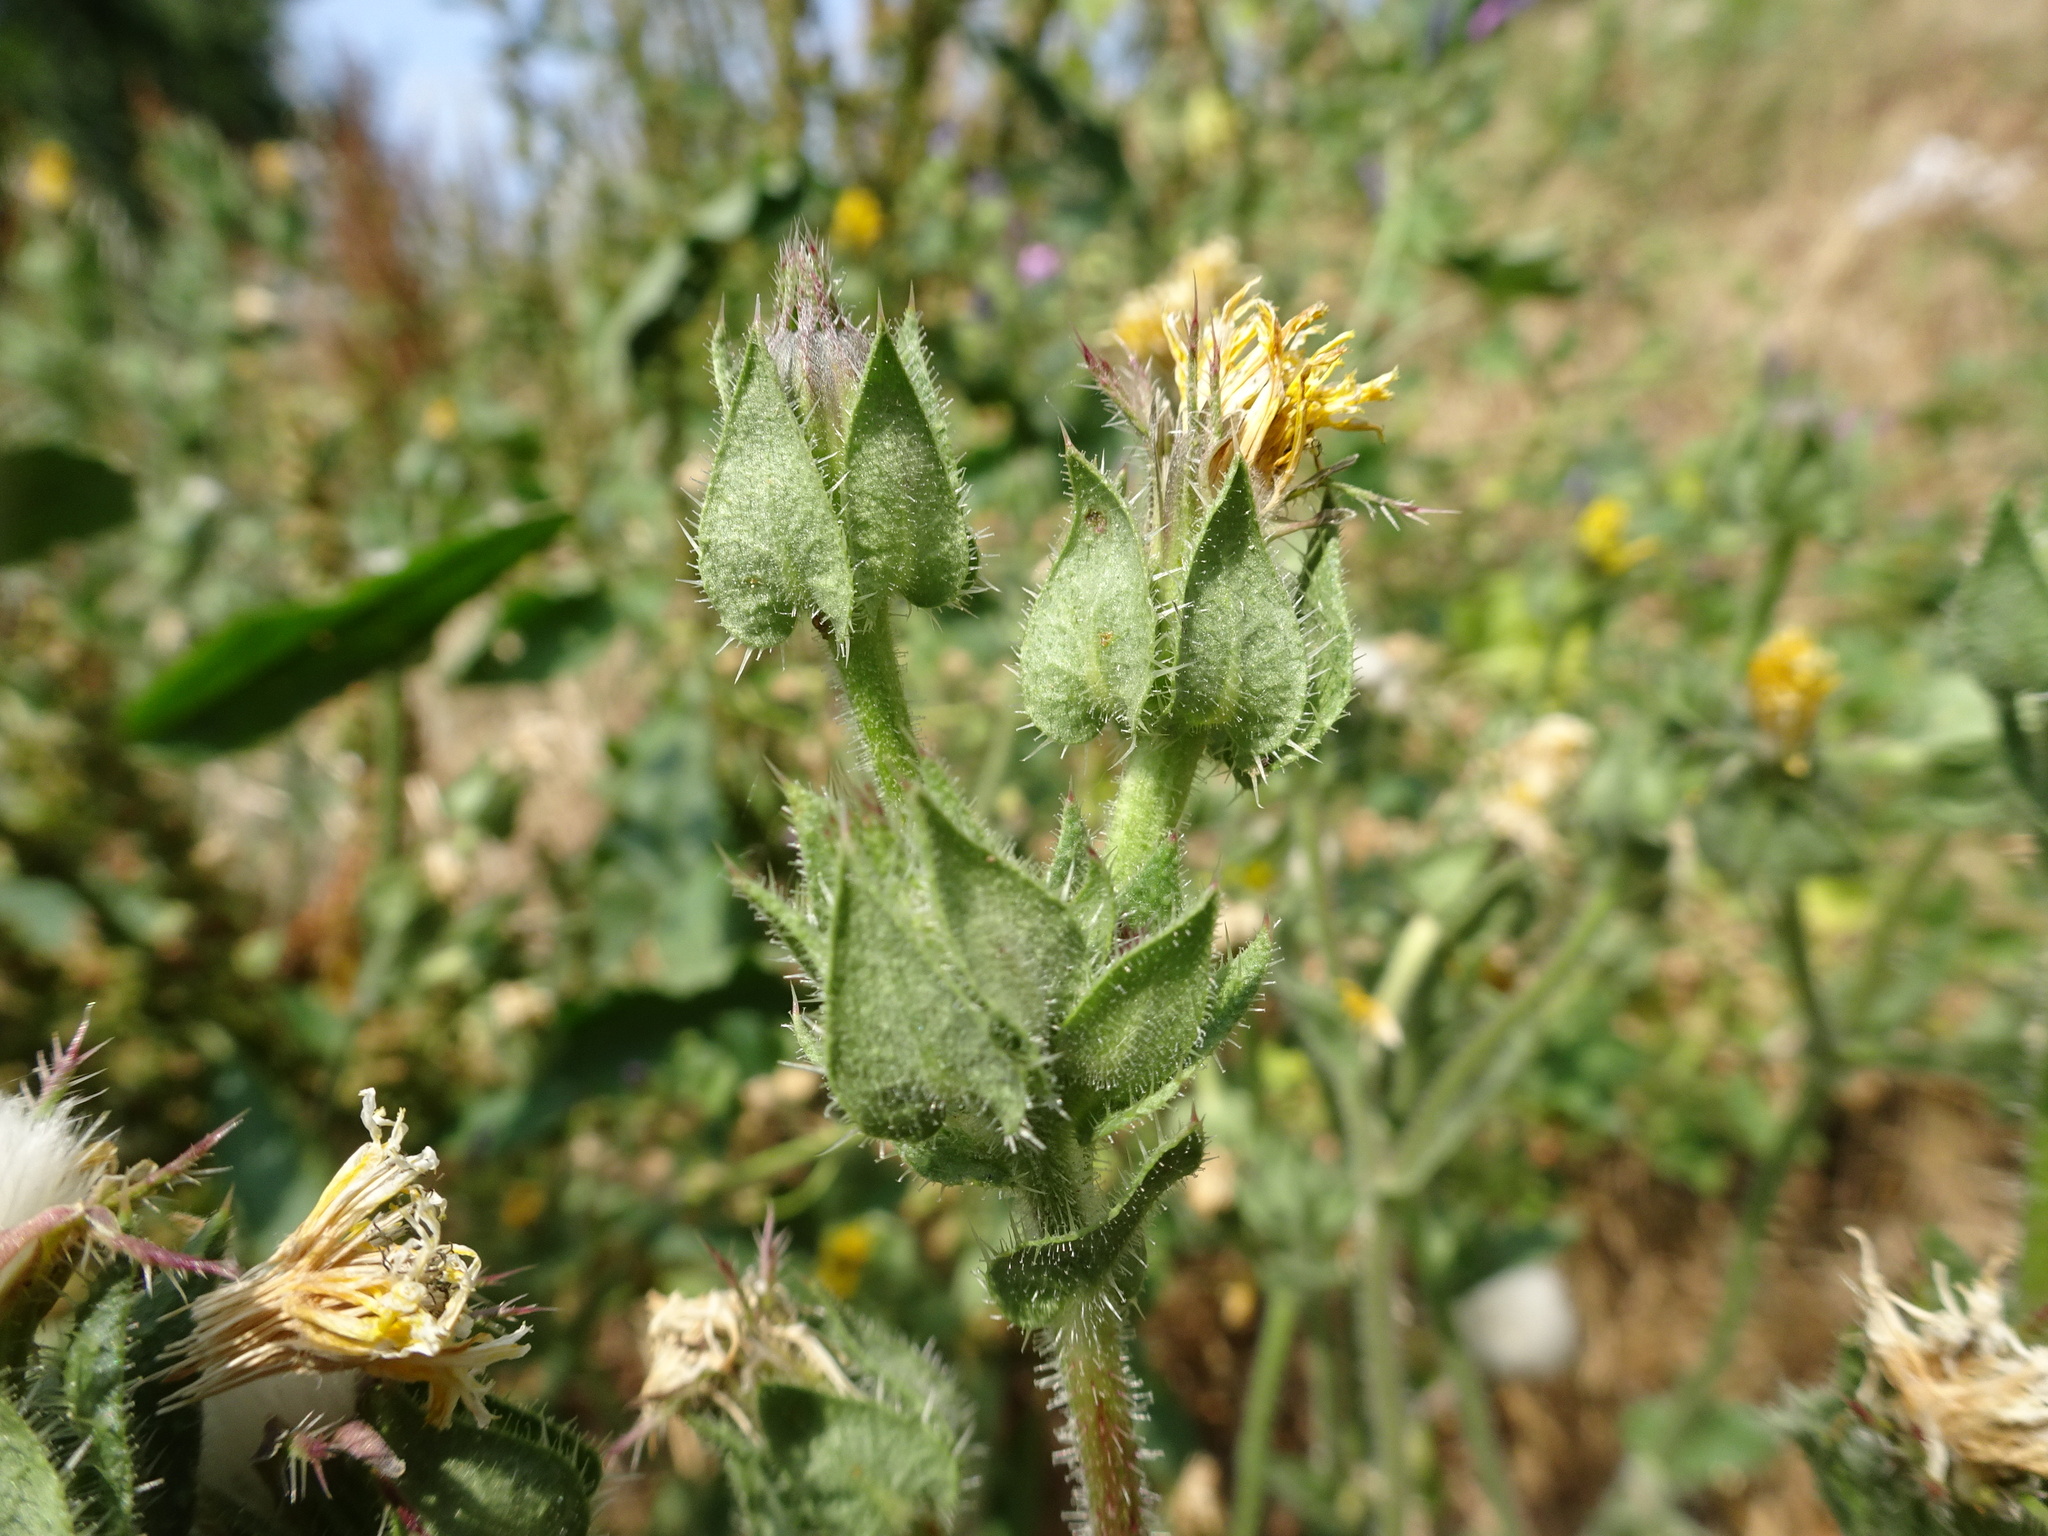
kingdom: Plantae
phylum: Tracheophyta
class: Magnoliopsida
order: Asterales
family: Asteraceae
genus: Helminthotheca
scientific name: Helminthotheca echioides
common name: Ox-tongue
